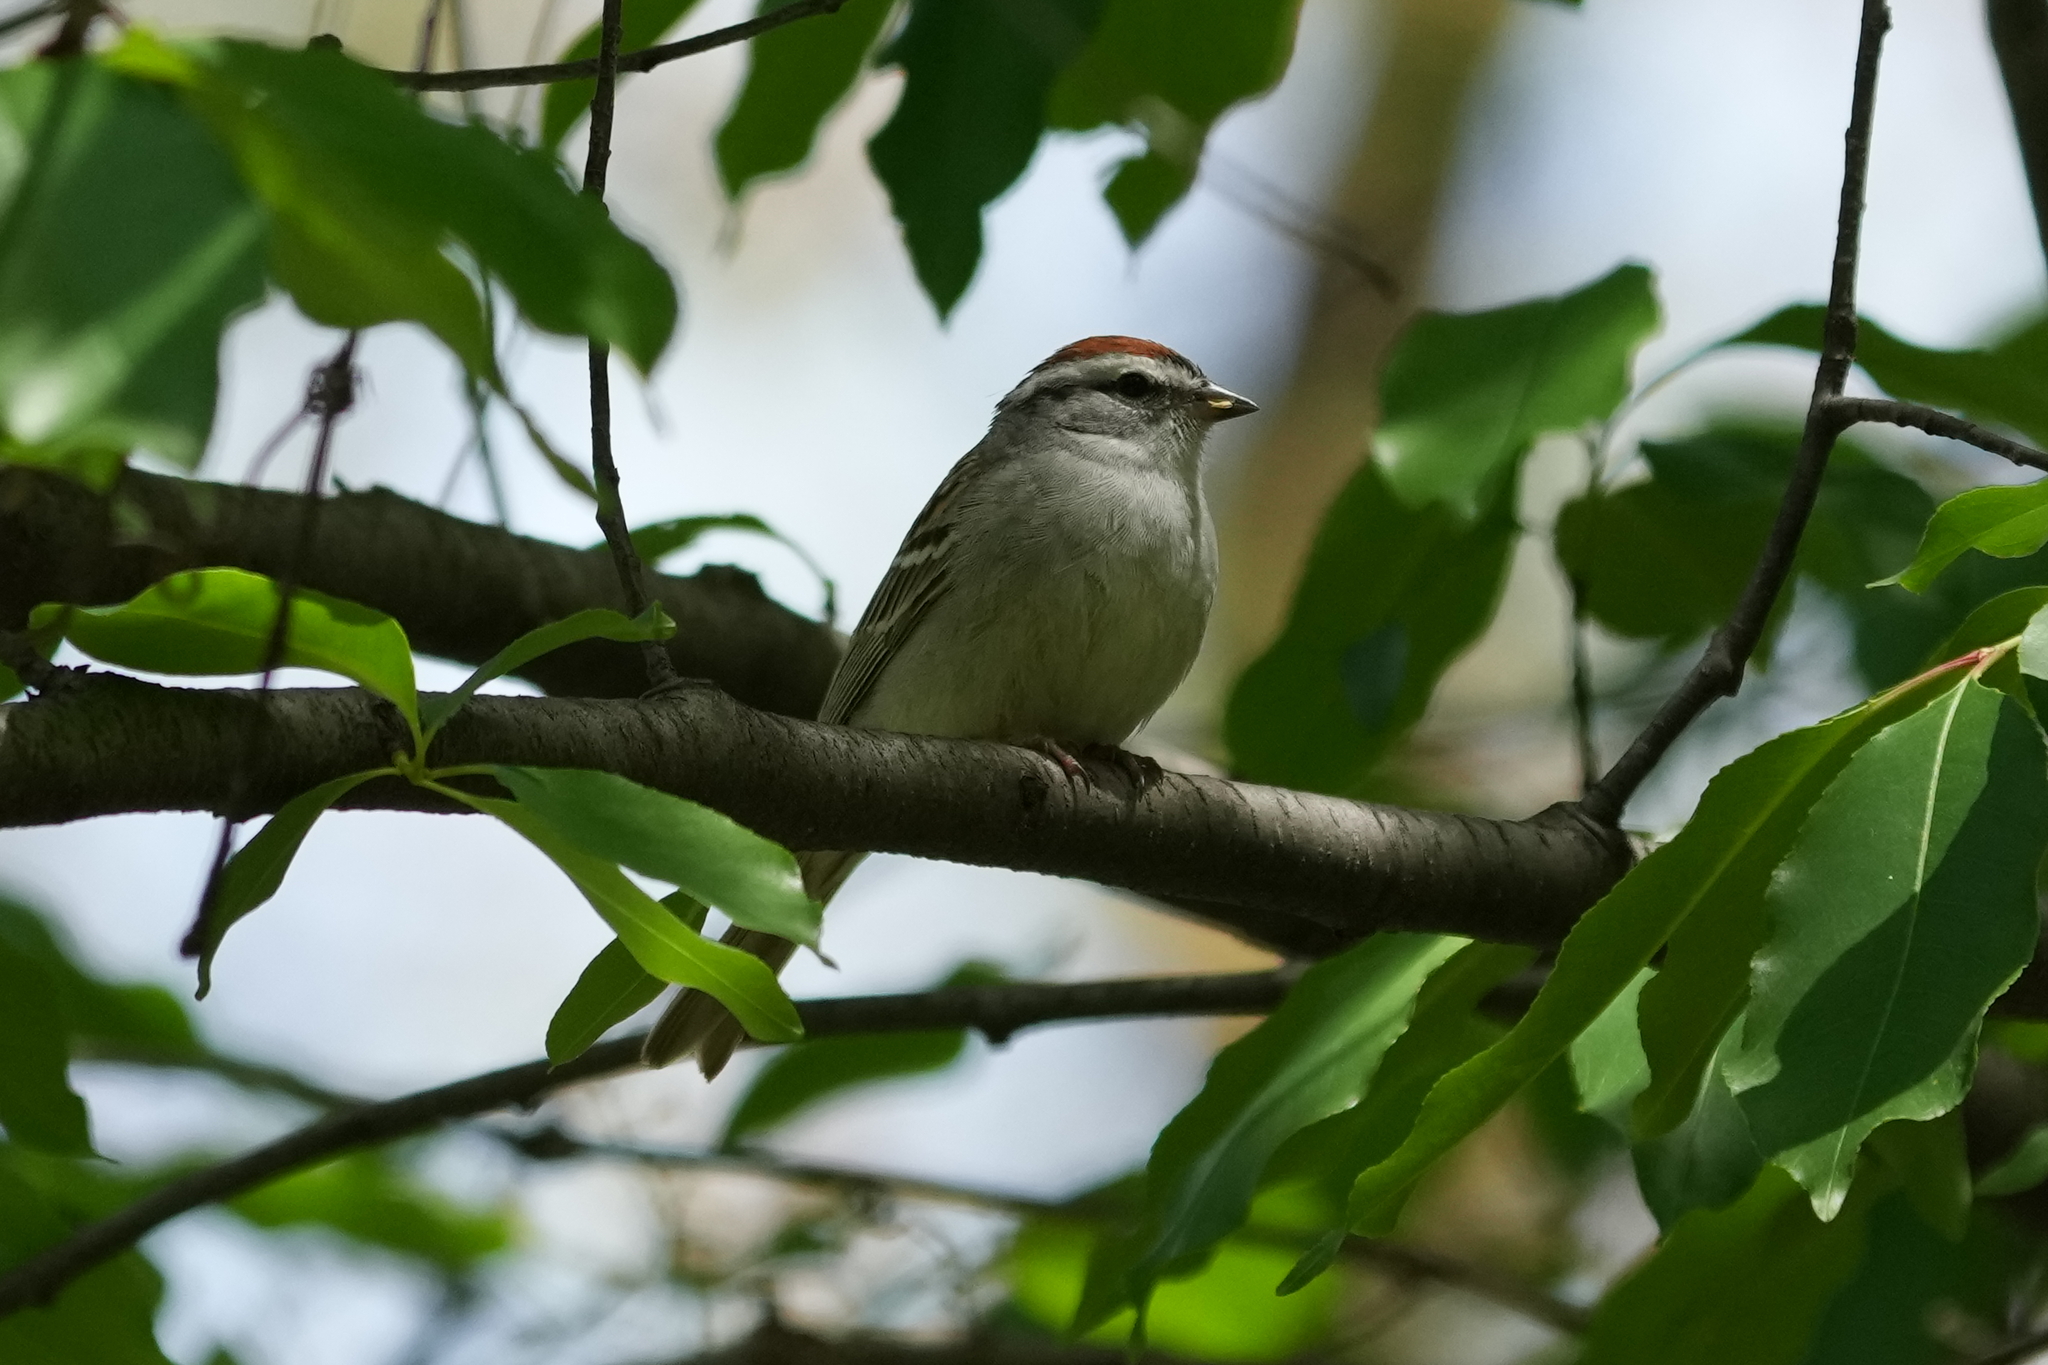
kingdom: Animalia
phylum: Chordata
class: Aves
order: Passeriformes
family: Passerellidae
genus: Spizella
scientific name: Spizella passerina
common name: Chipping sparrow
